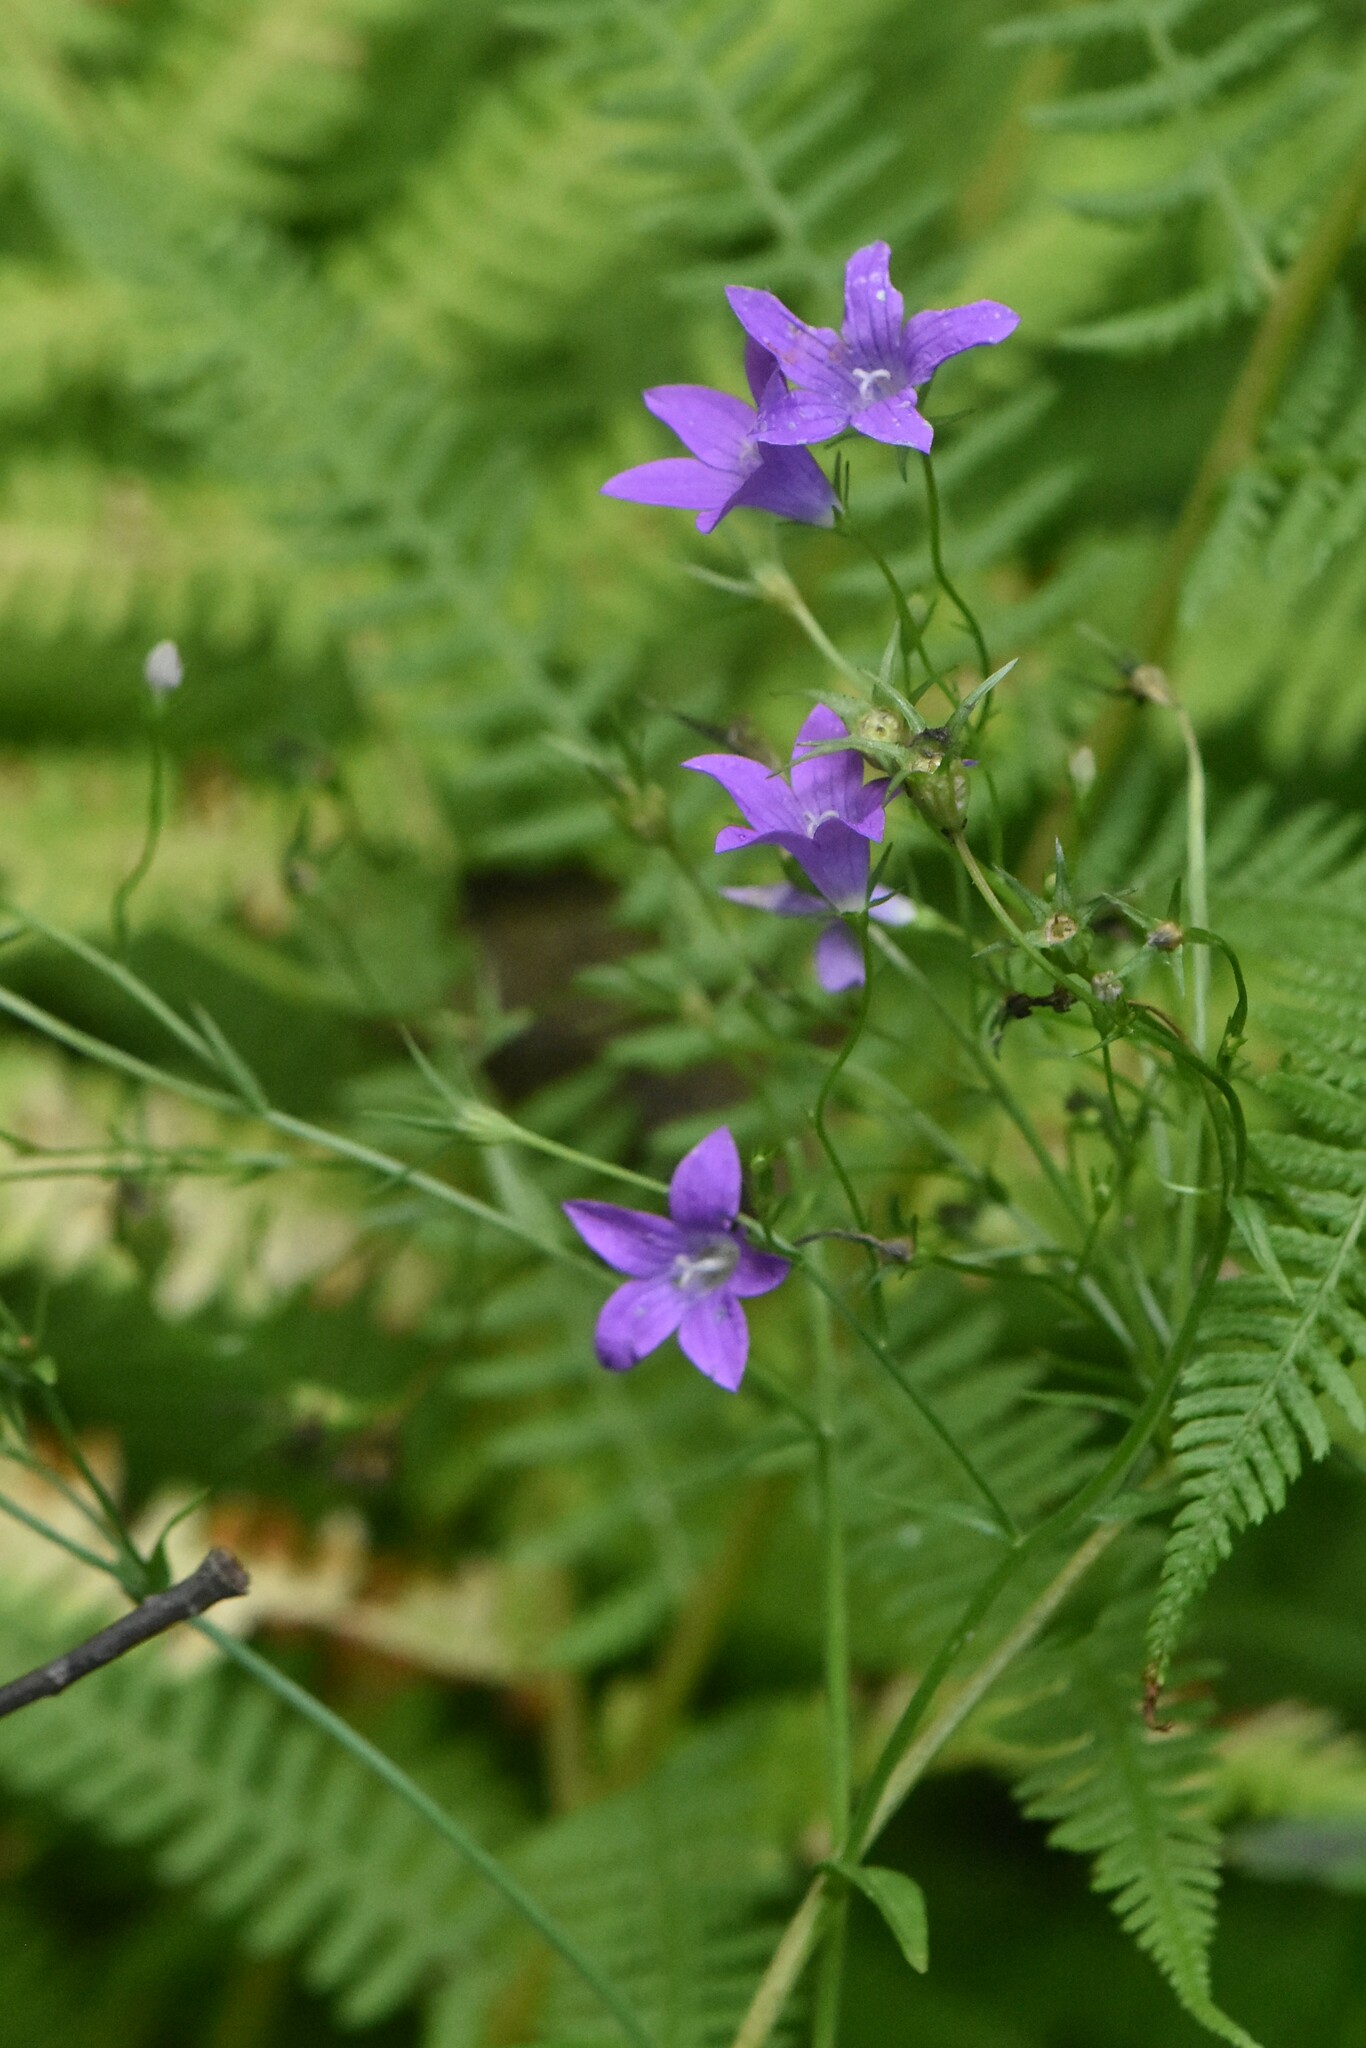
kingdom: Plantae
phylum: Tracheophyta
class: Magnoliopsida
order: Asterales
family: Campanulaceae
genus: Campanula
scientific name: Campanula patula
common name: Spreading bellflower
